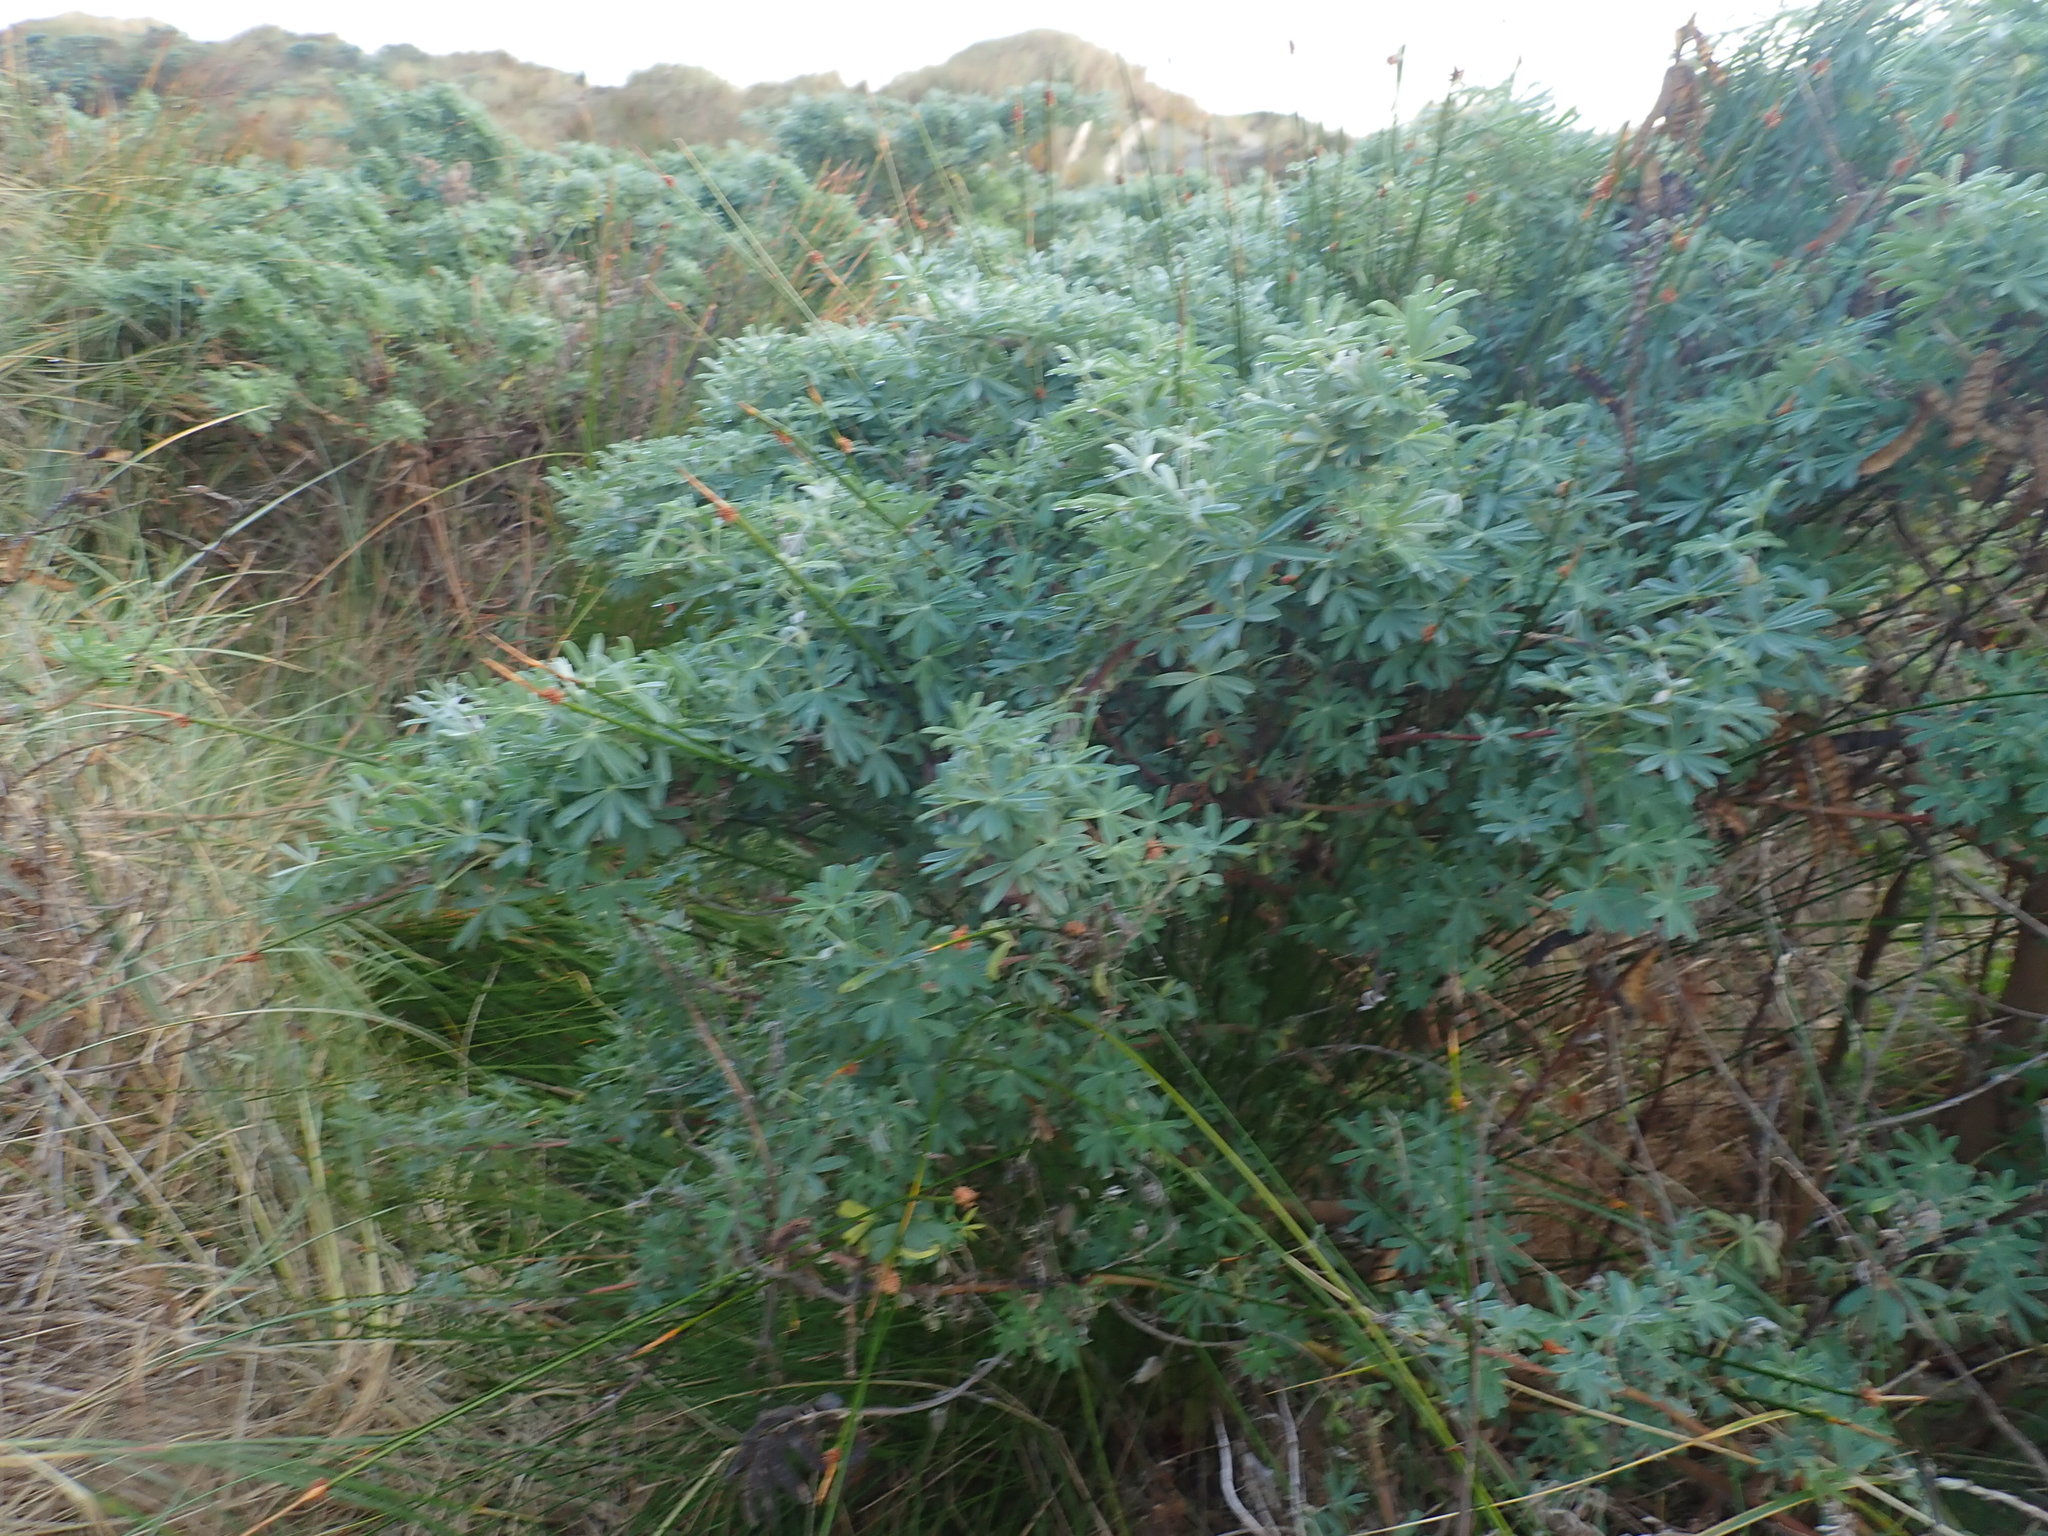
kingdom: Plantae
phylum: Tracheophyta
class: Magnoliopsida
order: Fabales
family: Fabaceae
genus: Lupinus
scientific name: Lupinus arboreus
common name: Yellow bush lupine
